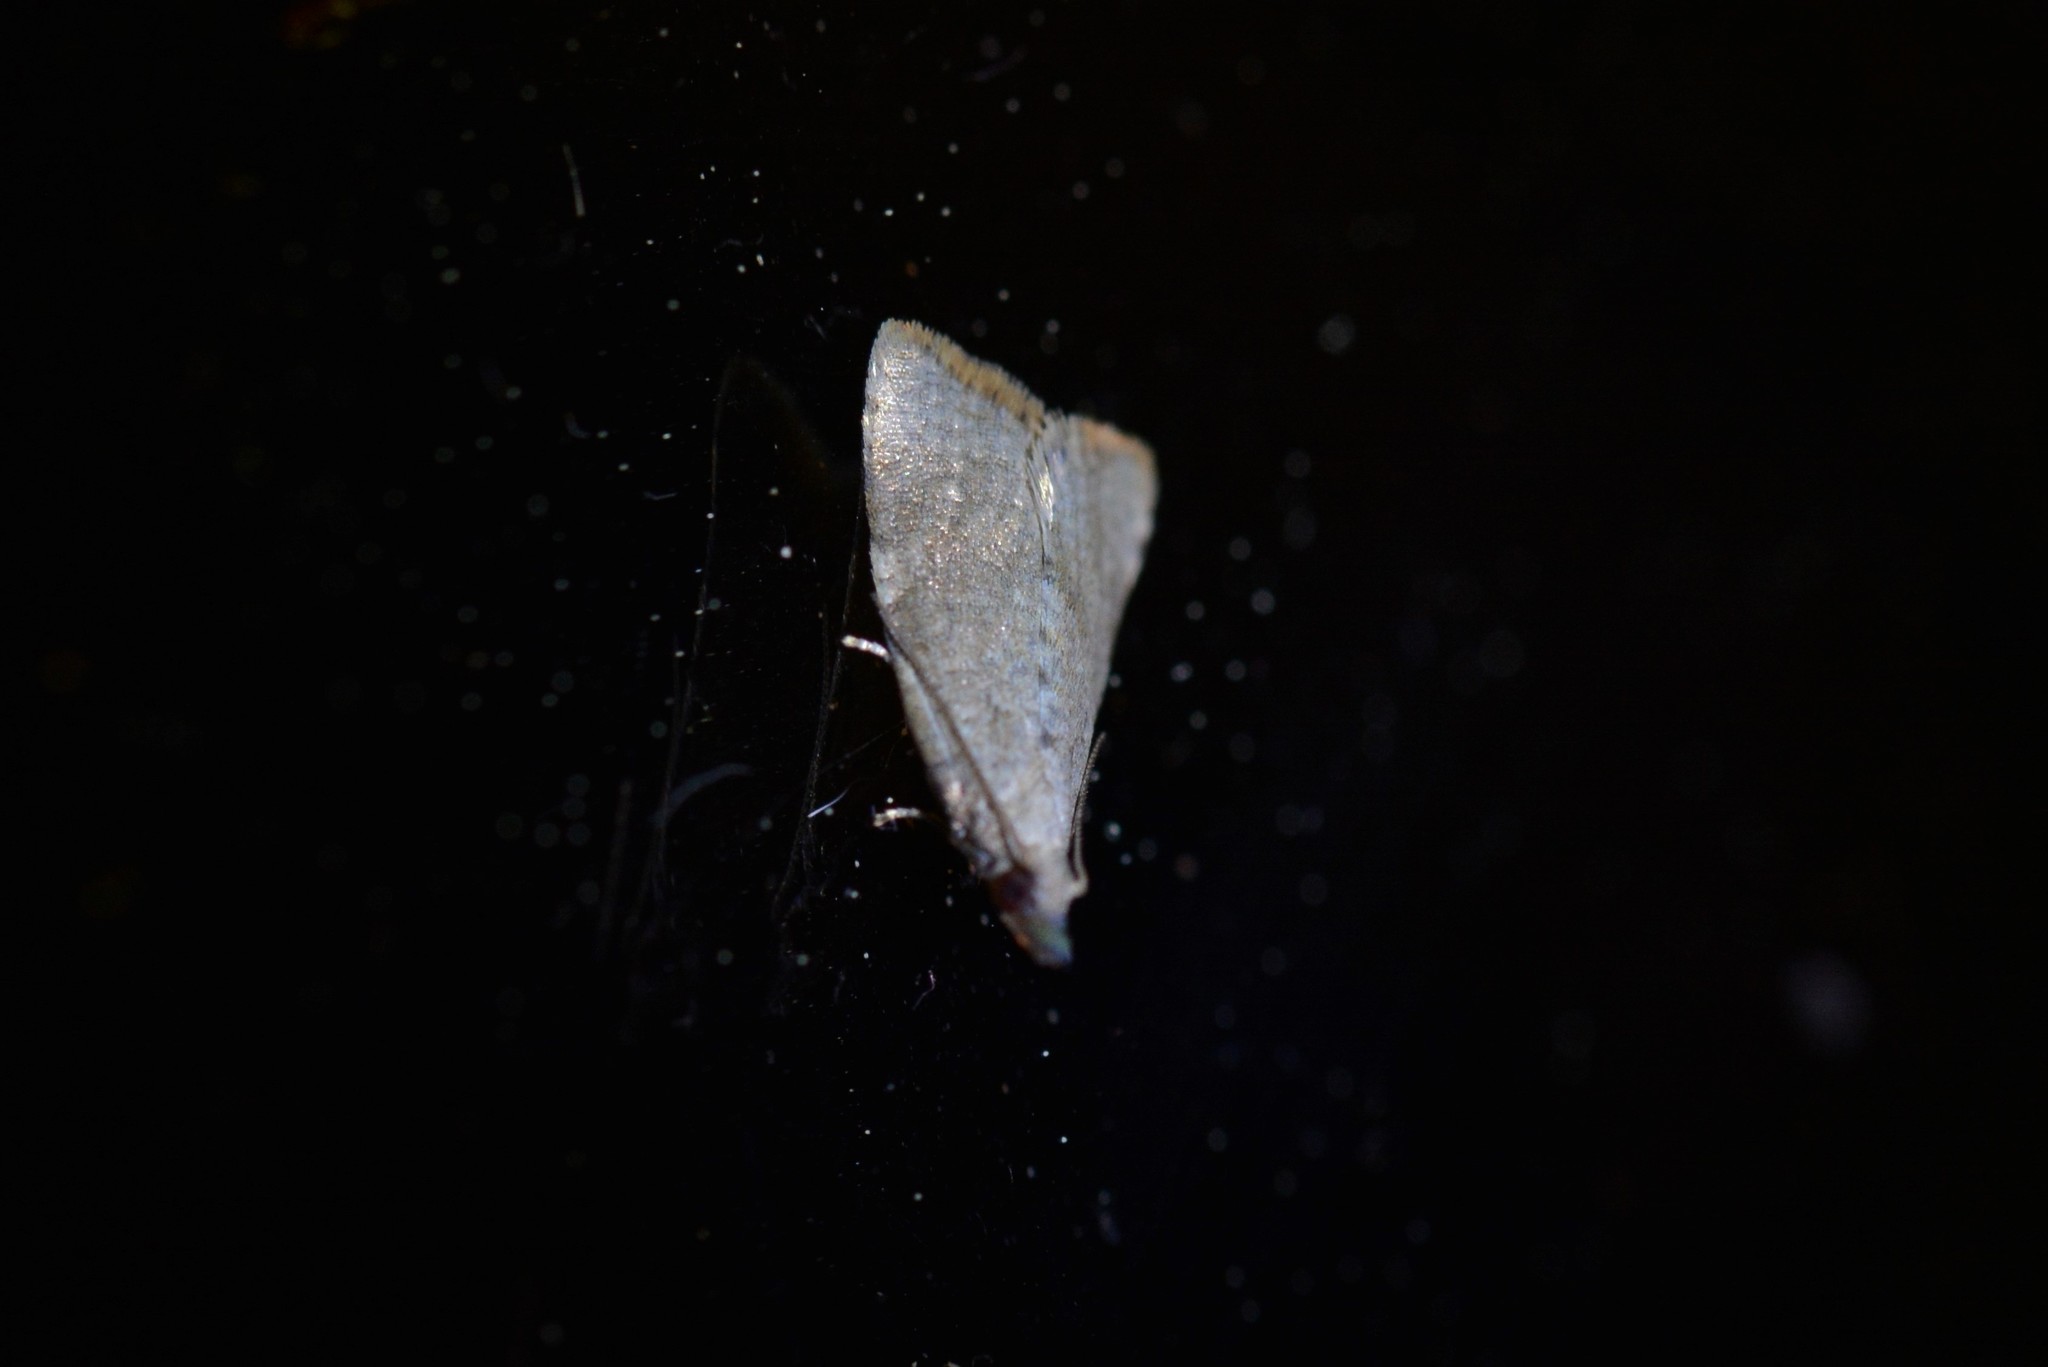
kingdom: Animalia
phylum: Arthropoda
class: Insecta
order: Lepidoptera
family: Tortricidae
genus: Catamacta
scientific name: Catamacta gavisana
